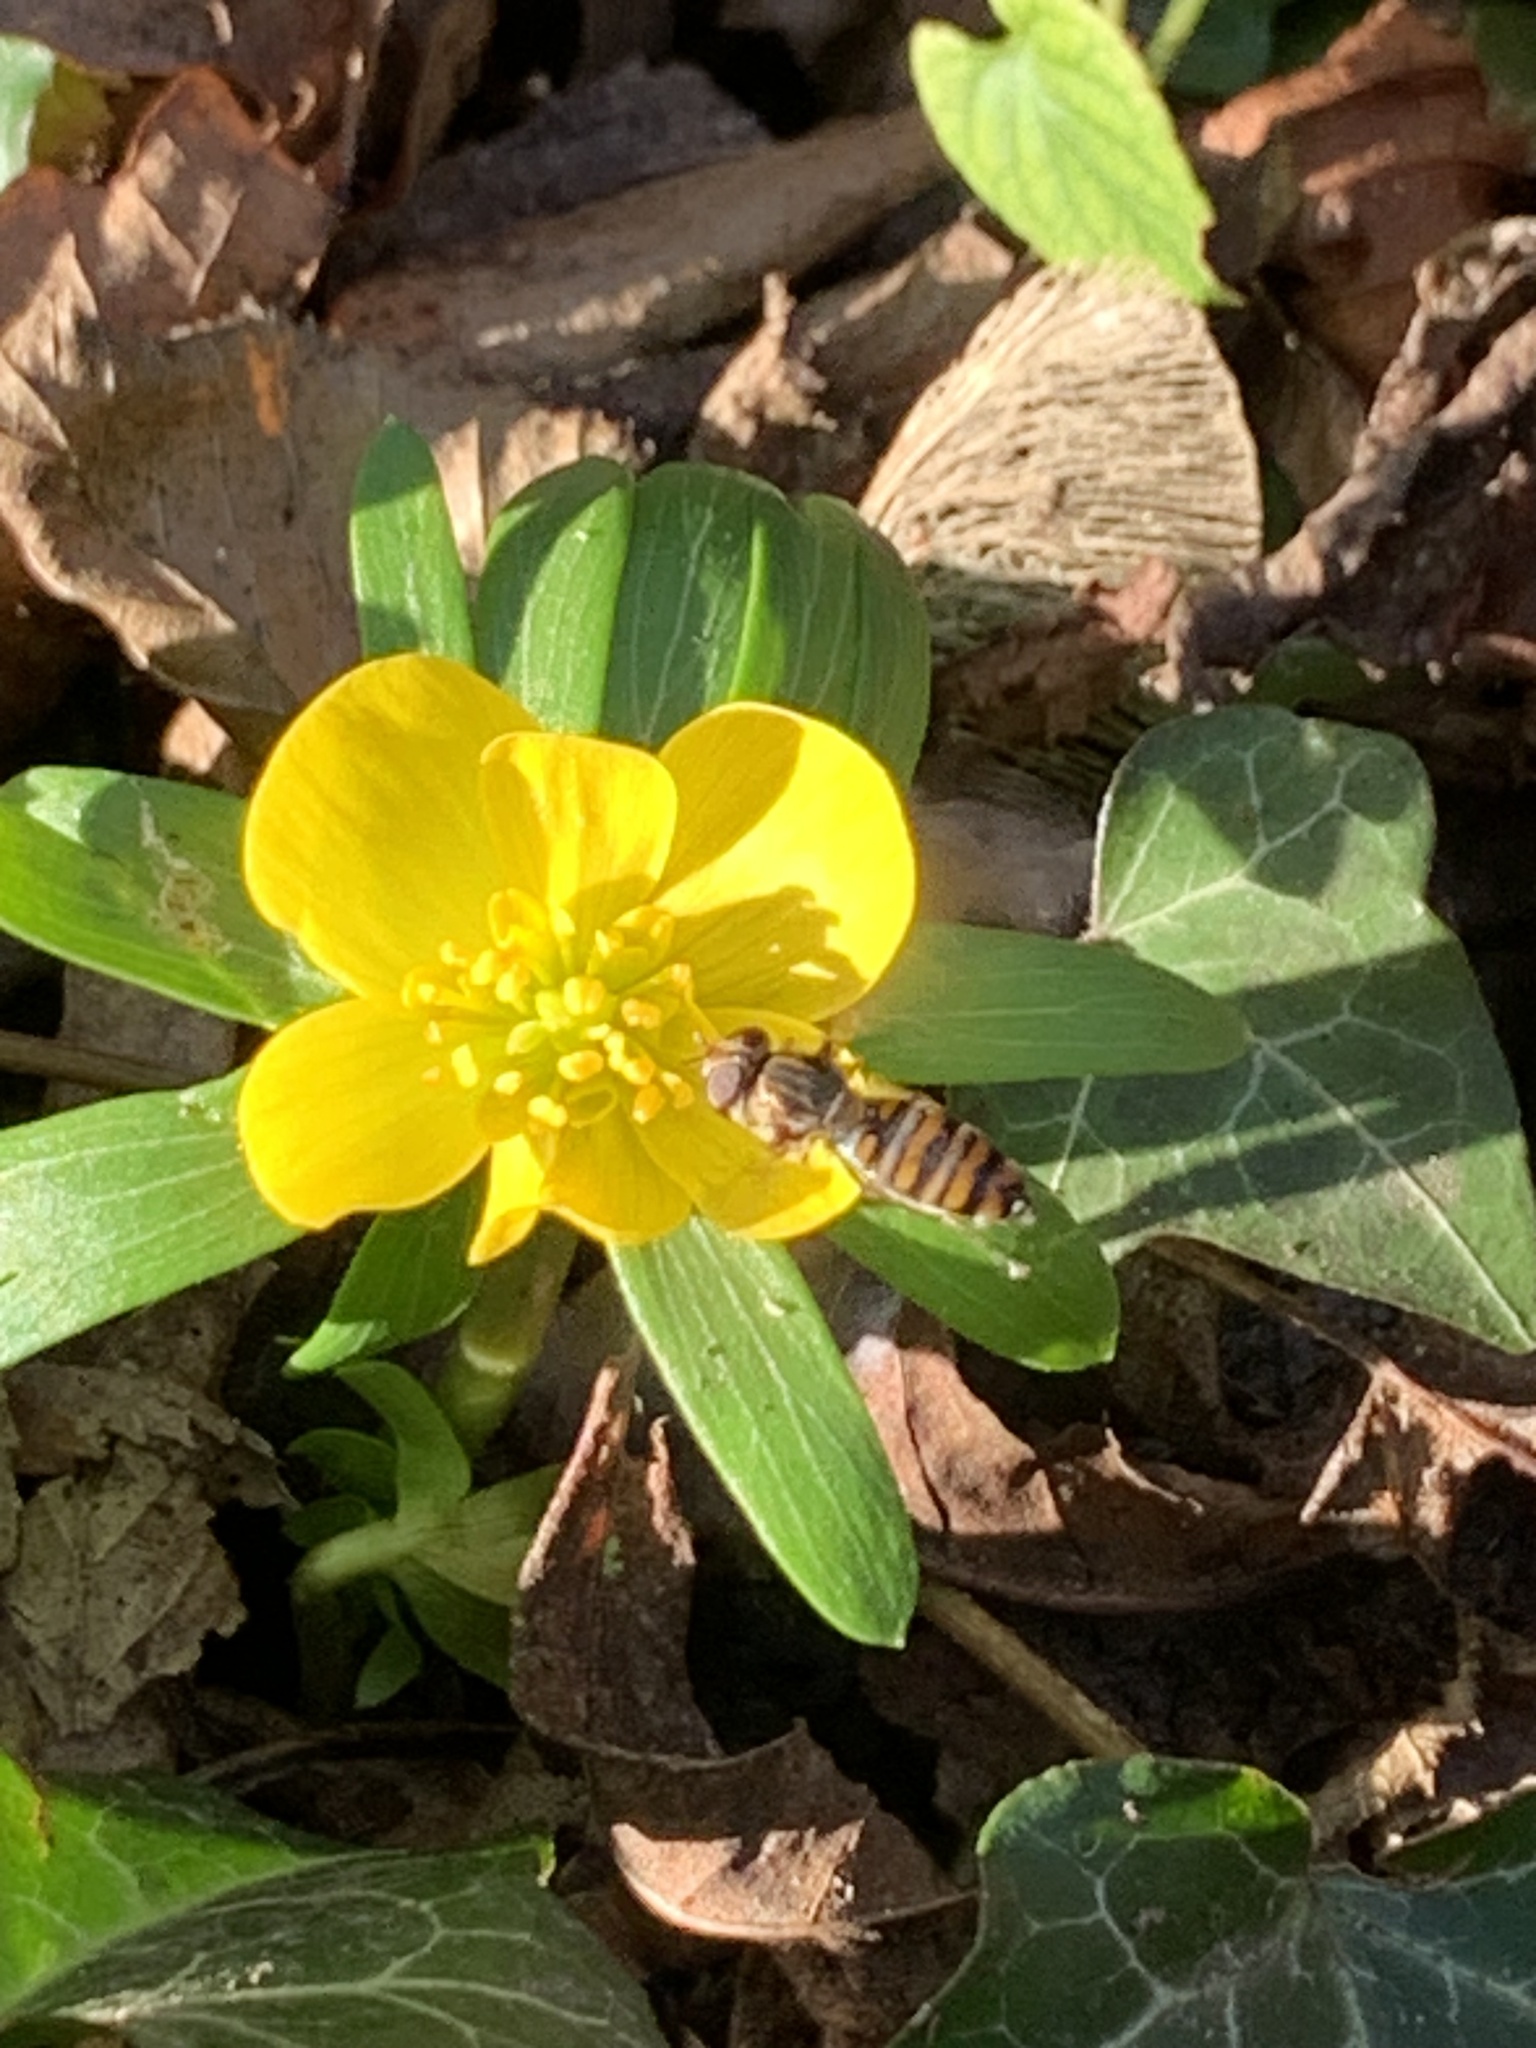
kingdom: Animalia
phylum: Arthropoda
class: Insecta
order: Diptera
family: Syrphidae
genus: Episyrphus
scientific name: Episyrphus balteatus
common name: Marmalade hoverfly
